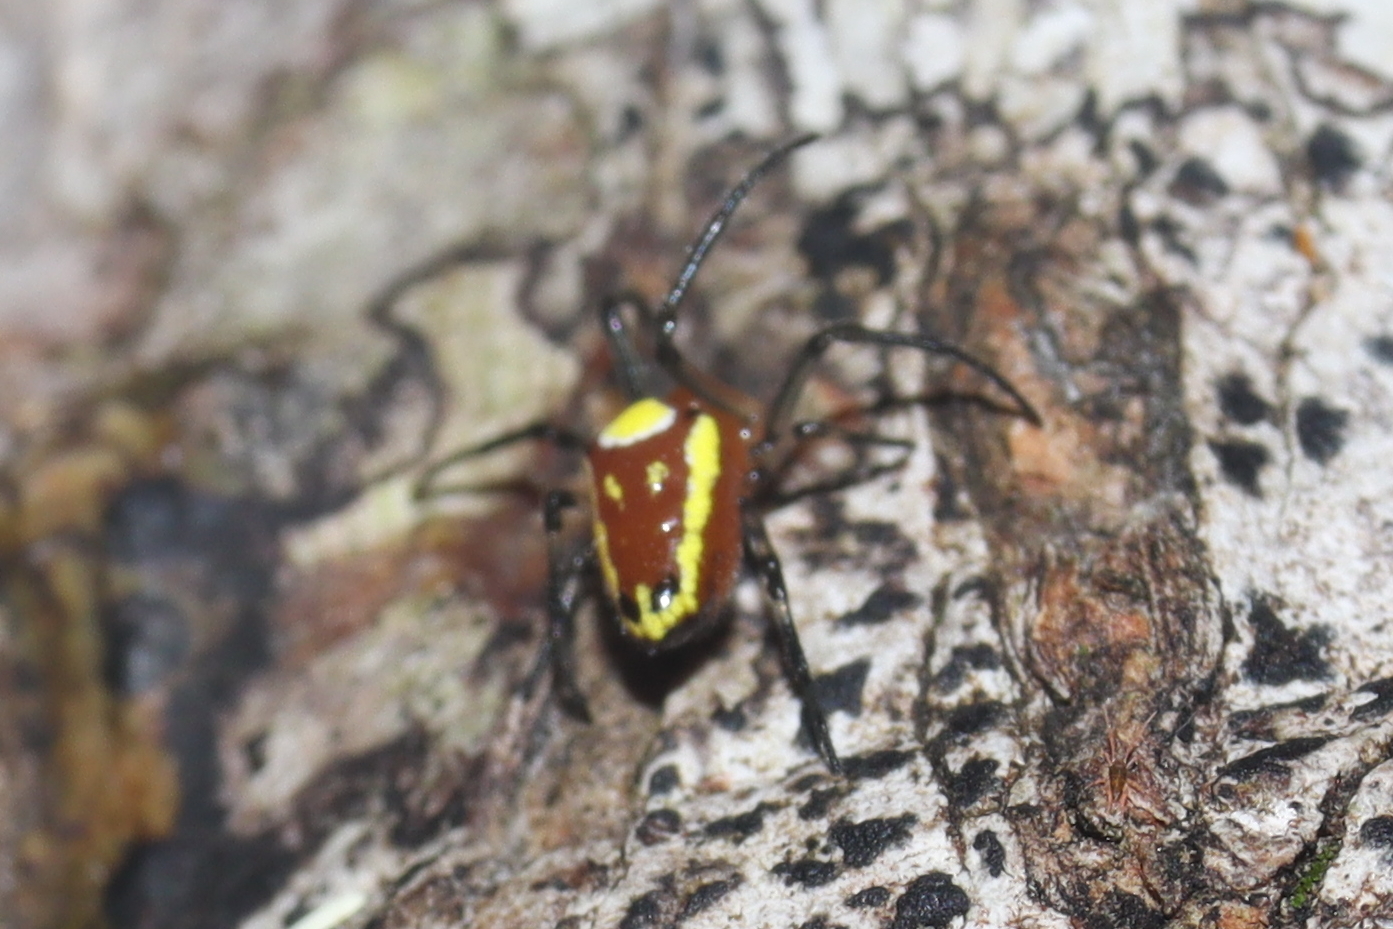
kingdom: Animalia
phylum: Arthropoda
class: Arachnida
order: Araneae
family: Araneidae
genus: Alpaida
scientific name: Alpaida tuonabo
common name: Orb weavers
